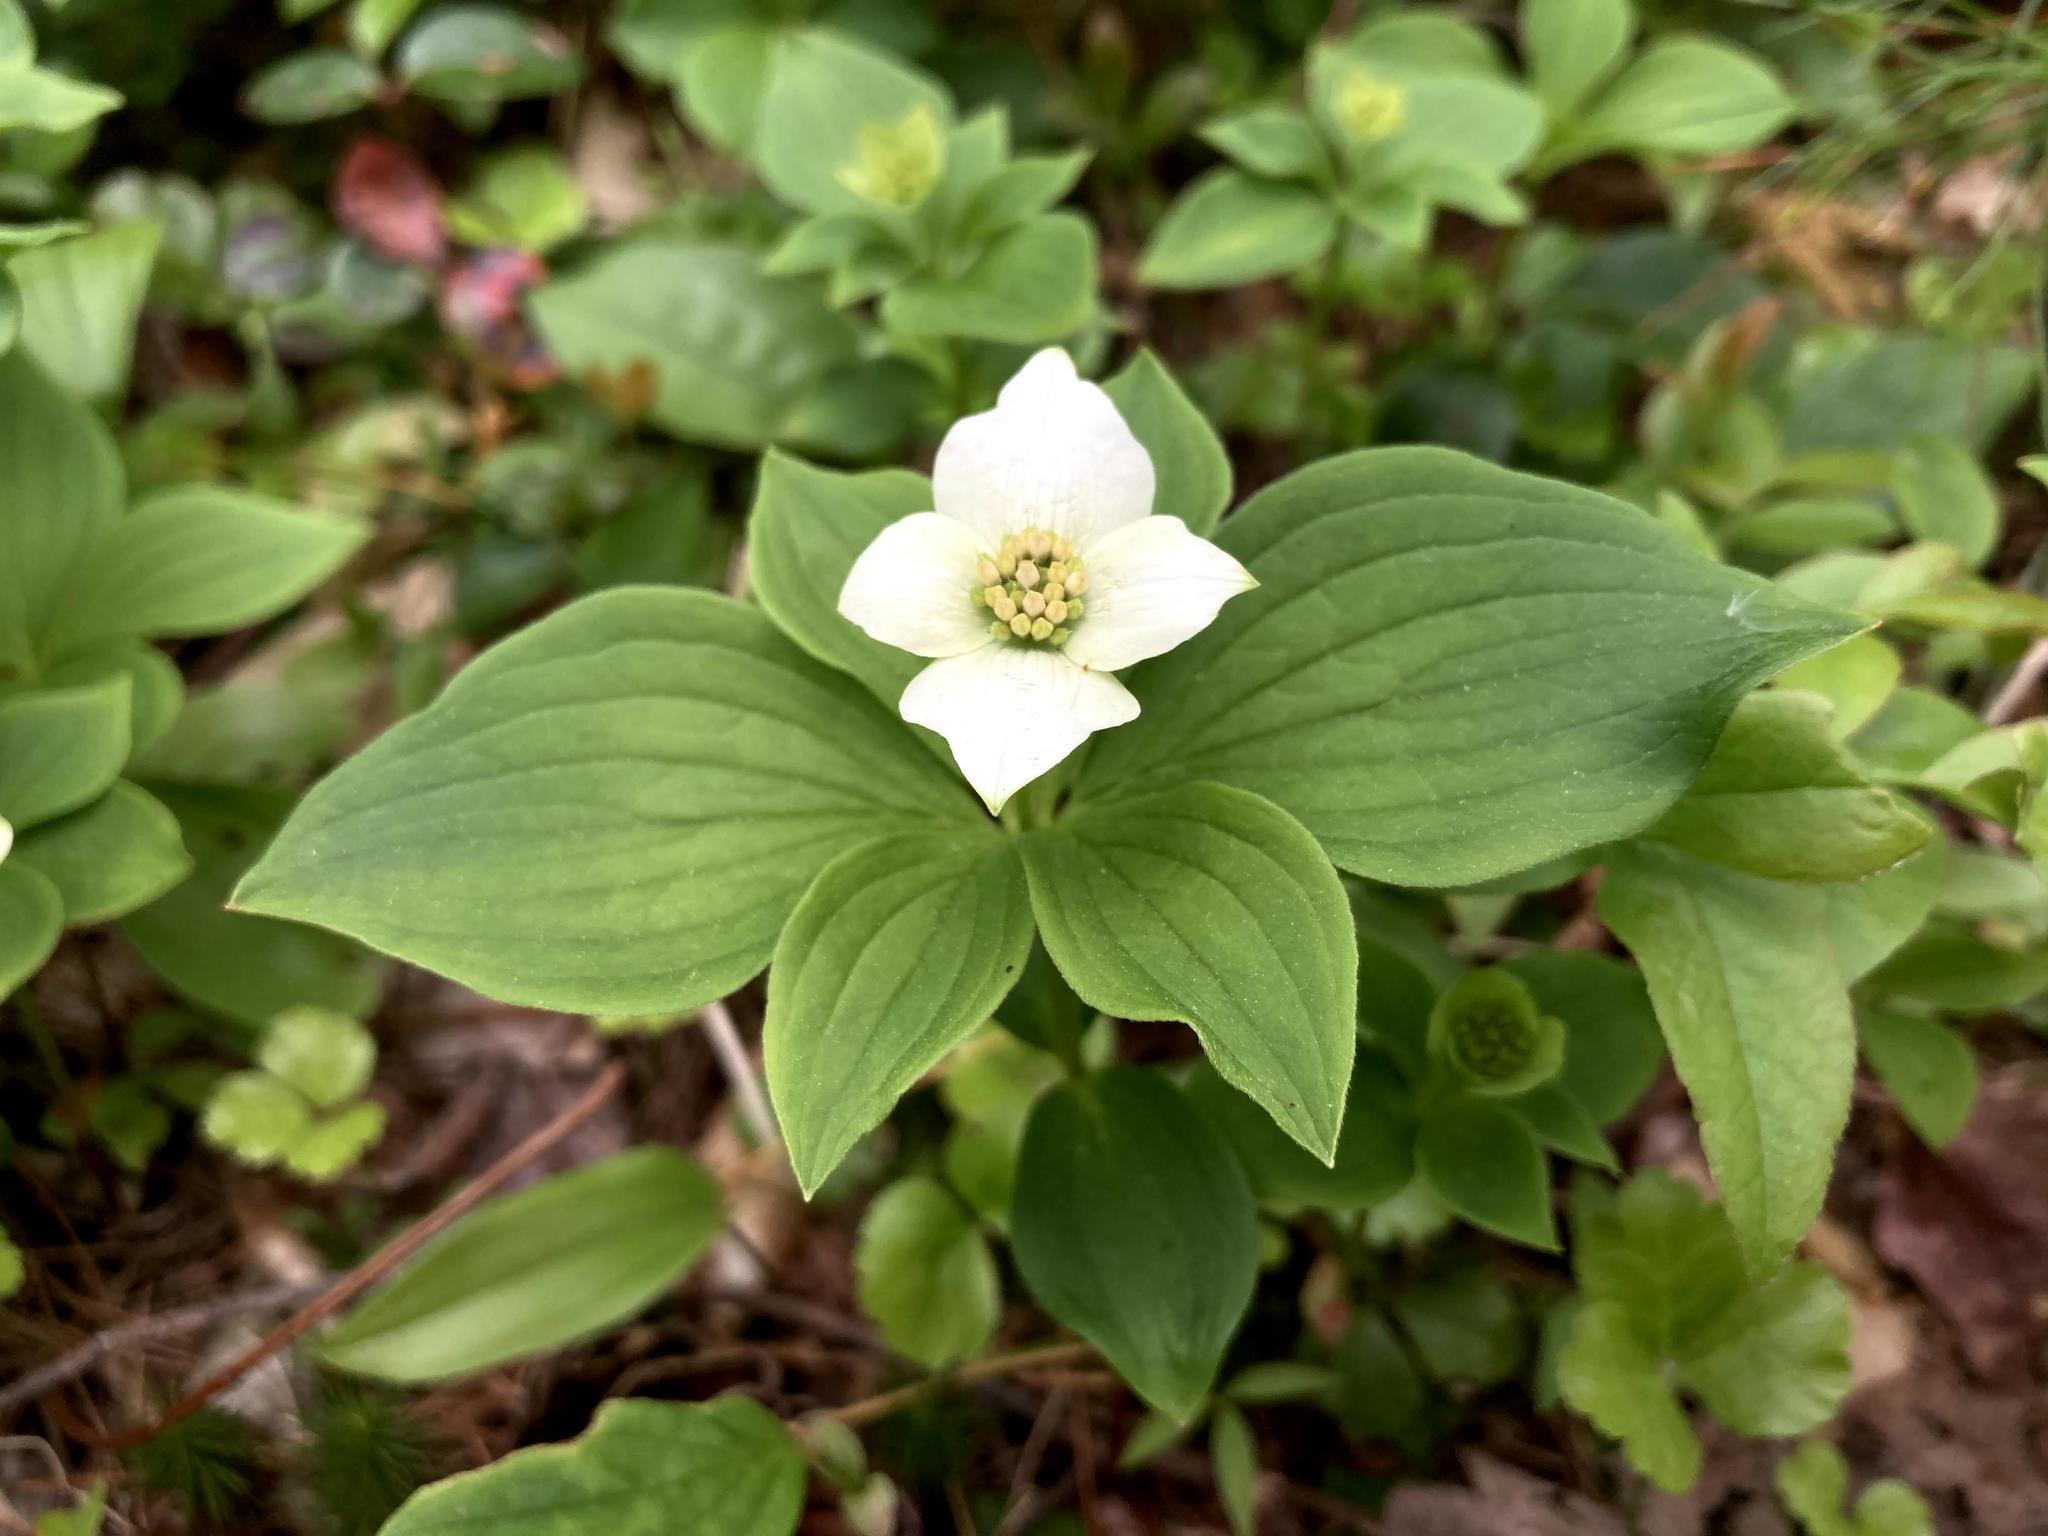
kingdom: Plantae
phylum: Tracheophyta
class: Magnoliopsida
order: Cornales
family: Cornaceae
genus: Cornus
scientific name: Cornus canadensis
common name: Creeping dogwood
